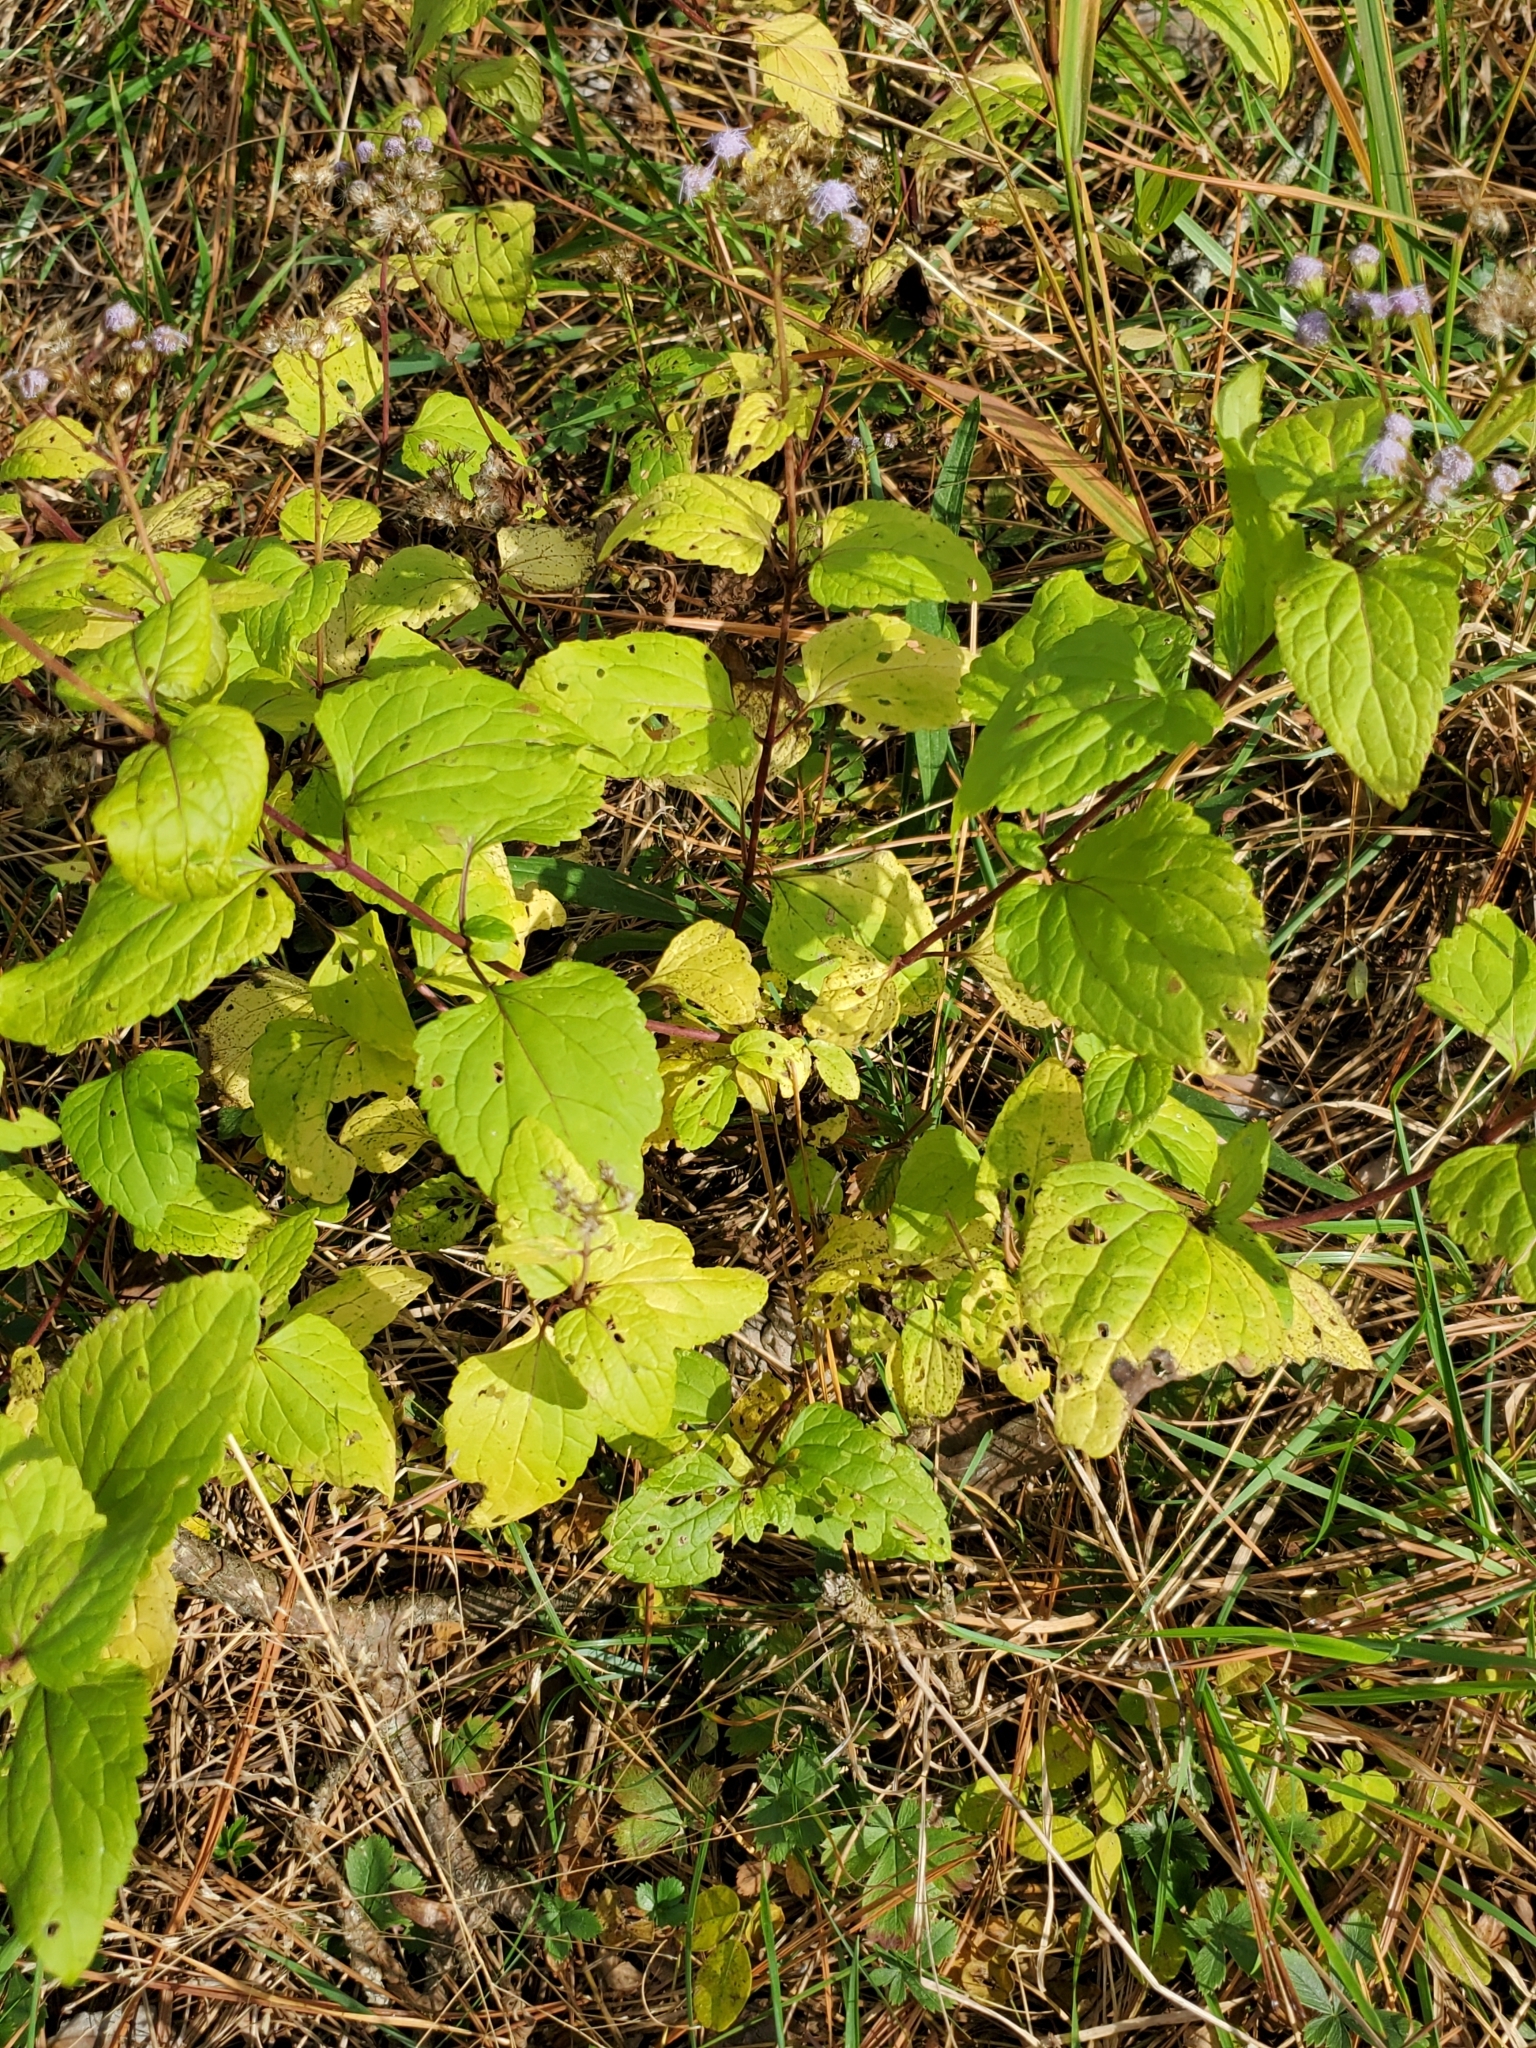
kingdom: Plantae
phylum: Tracheophyta
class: Magnoliopsida
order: Asterales
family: Asteraceae
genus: Conoclinium
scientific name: Conoclinium coelestinum
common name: Blue mistflower
